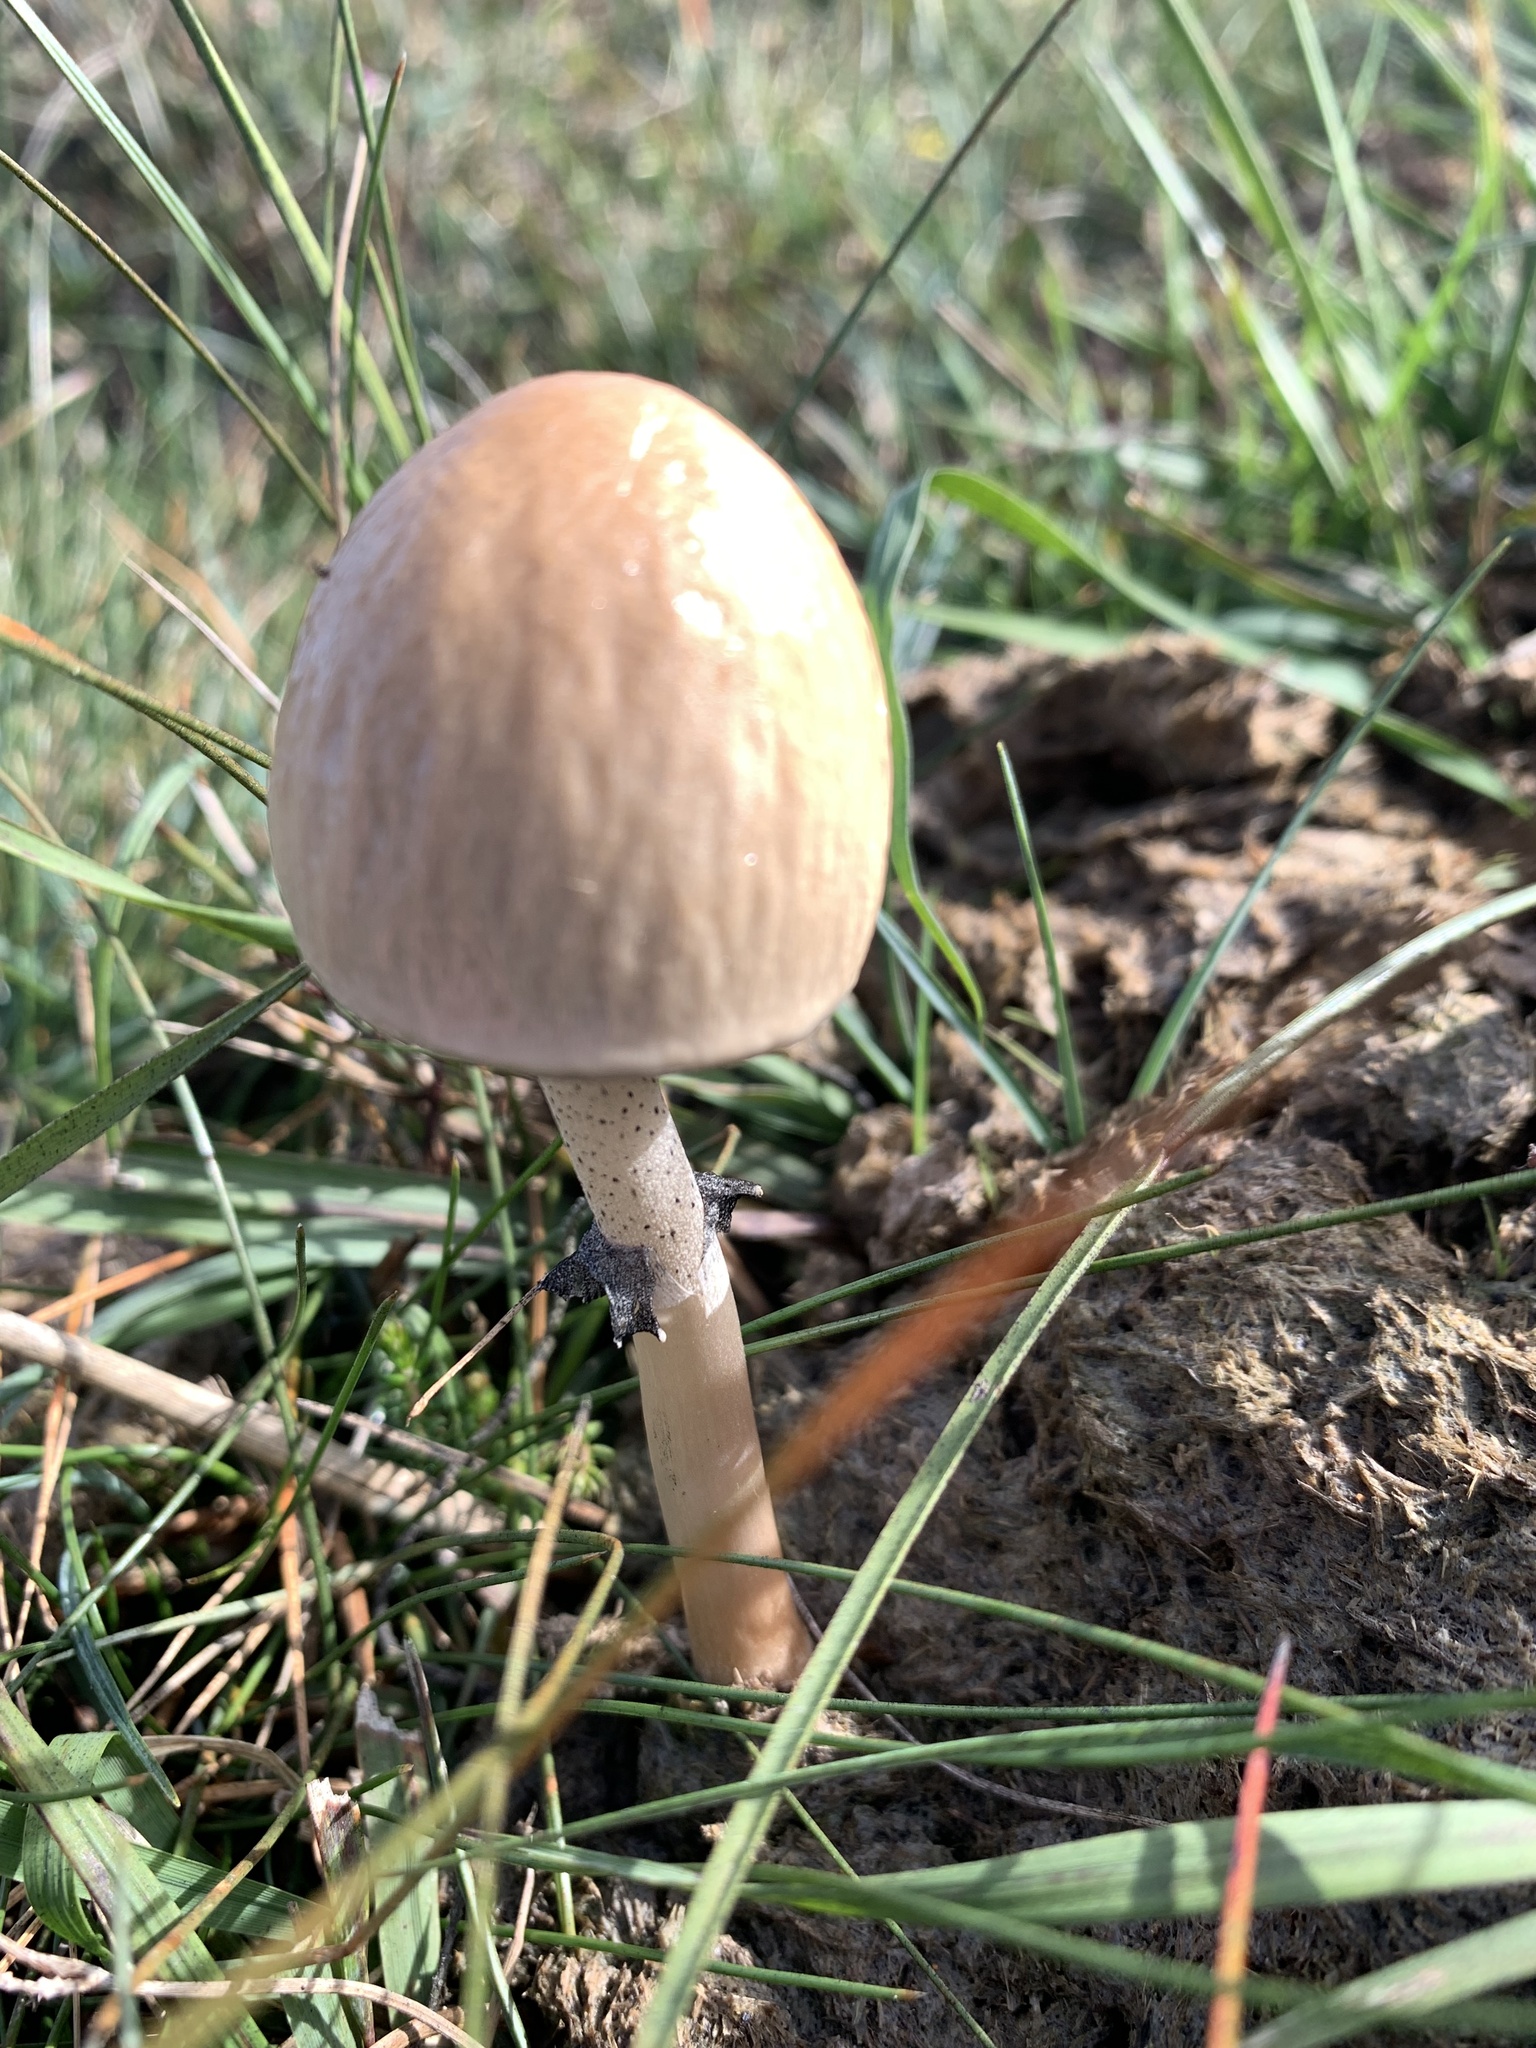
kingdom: Fungi
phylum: Basidiomycota
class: Agaricomycetes
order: Agaricales
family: Bolbitiaceae
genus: Panaeolus
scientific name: Panaeolus semiovatus
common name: Shiny mottlegill
